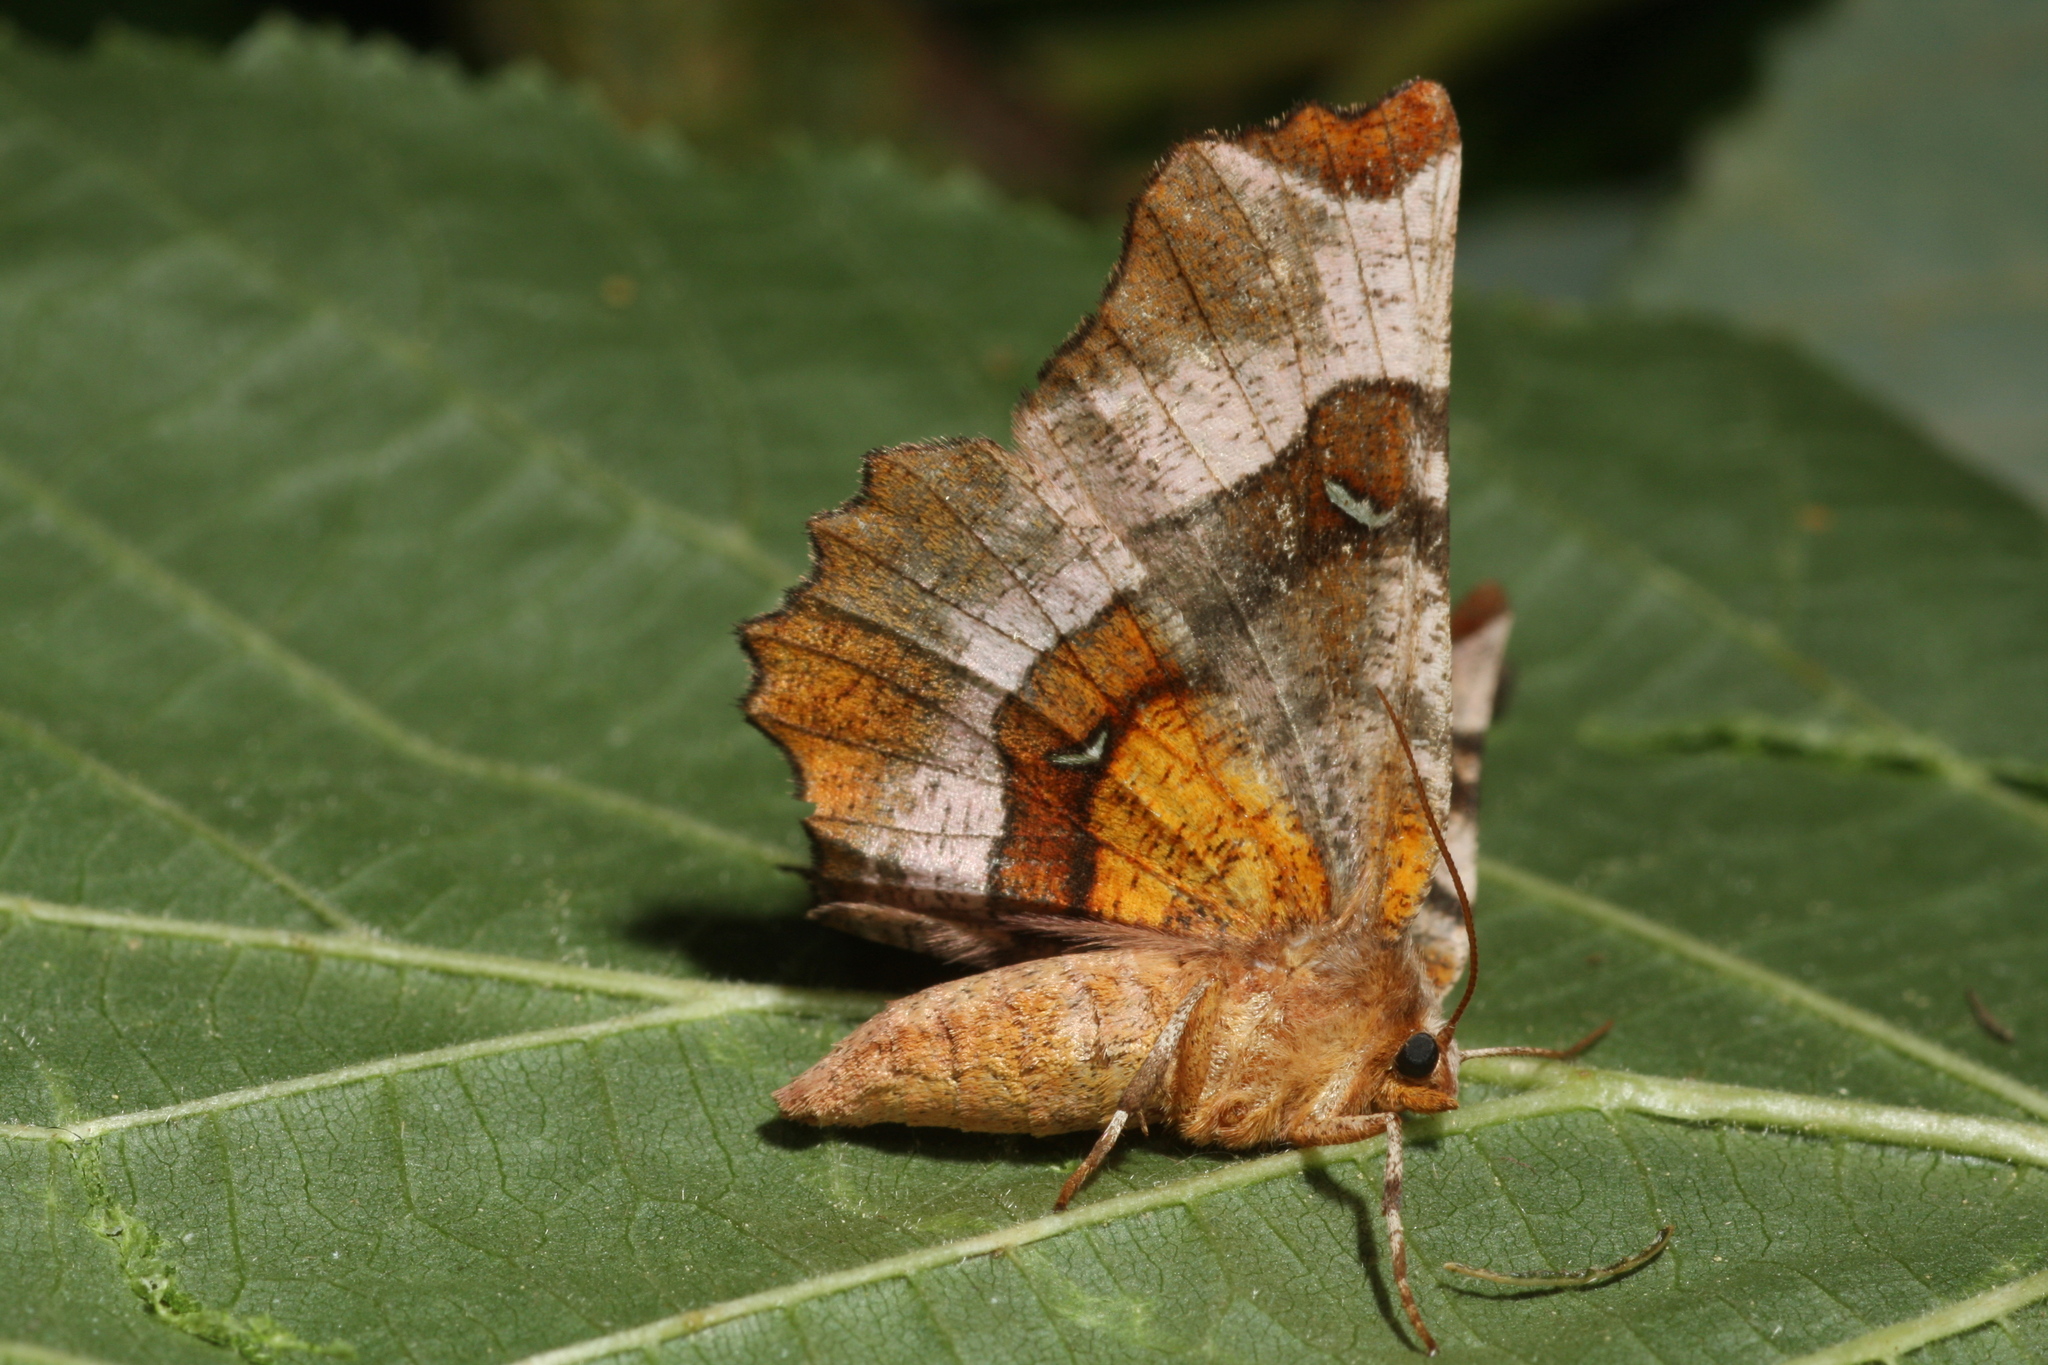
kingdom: Animalia
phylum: Arthropoda
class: Insecta
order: Lepidoptera
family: Geometridae
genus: Selenia
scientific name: Selenia tetralunaria
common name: Purple thorn
